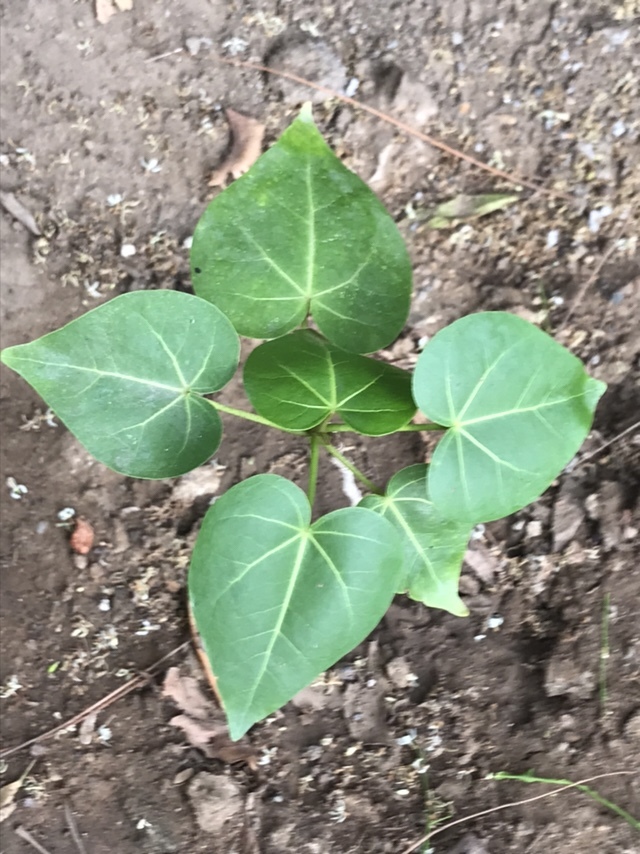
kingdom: Plantae
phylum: Tracheophyta
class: Magnoliopsida
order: Malvales
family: Malvaceae
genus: Thespesia
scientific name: Thespesia populnea
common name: Seaside mahoe
